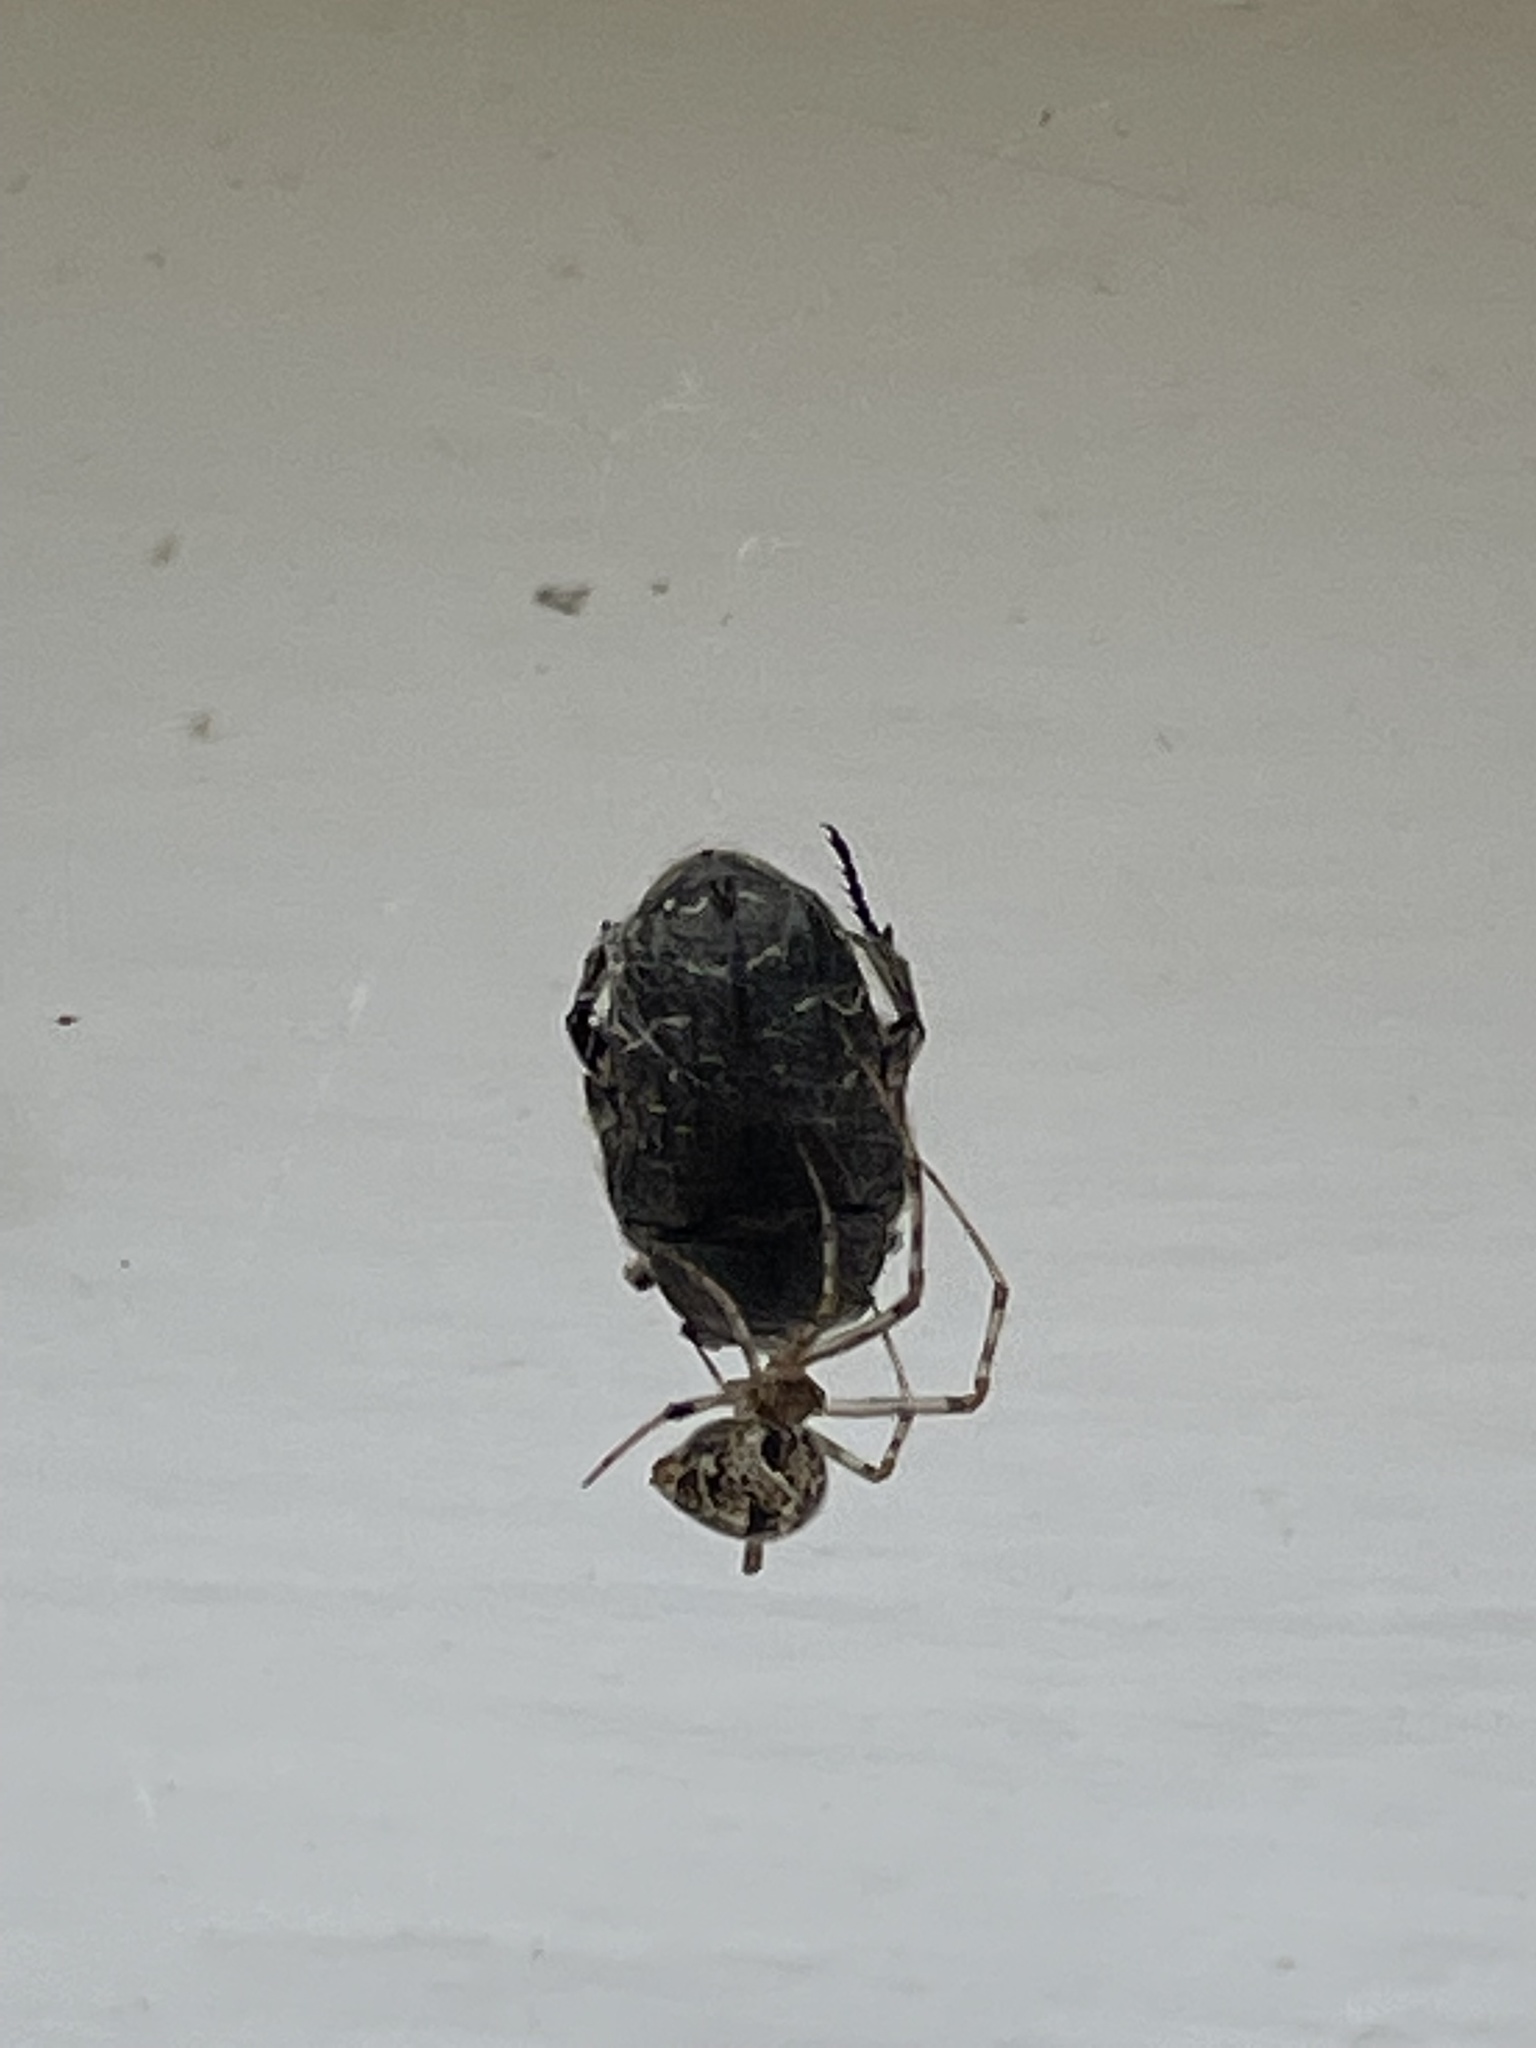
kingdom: Animalia
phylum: Arthropoda
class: Insecta
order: Coleoptera
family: Scarabaeidae
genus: Euphoria
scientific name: Euphoria sepulcralis
